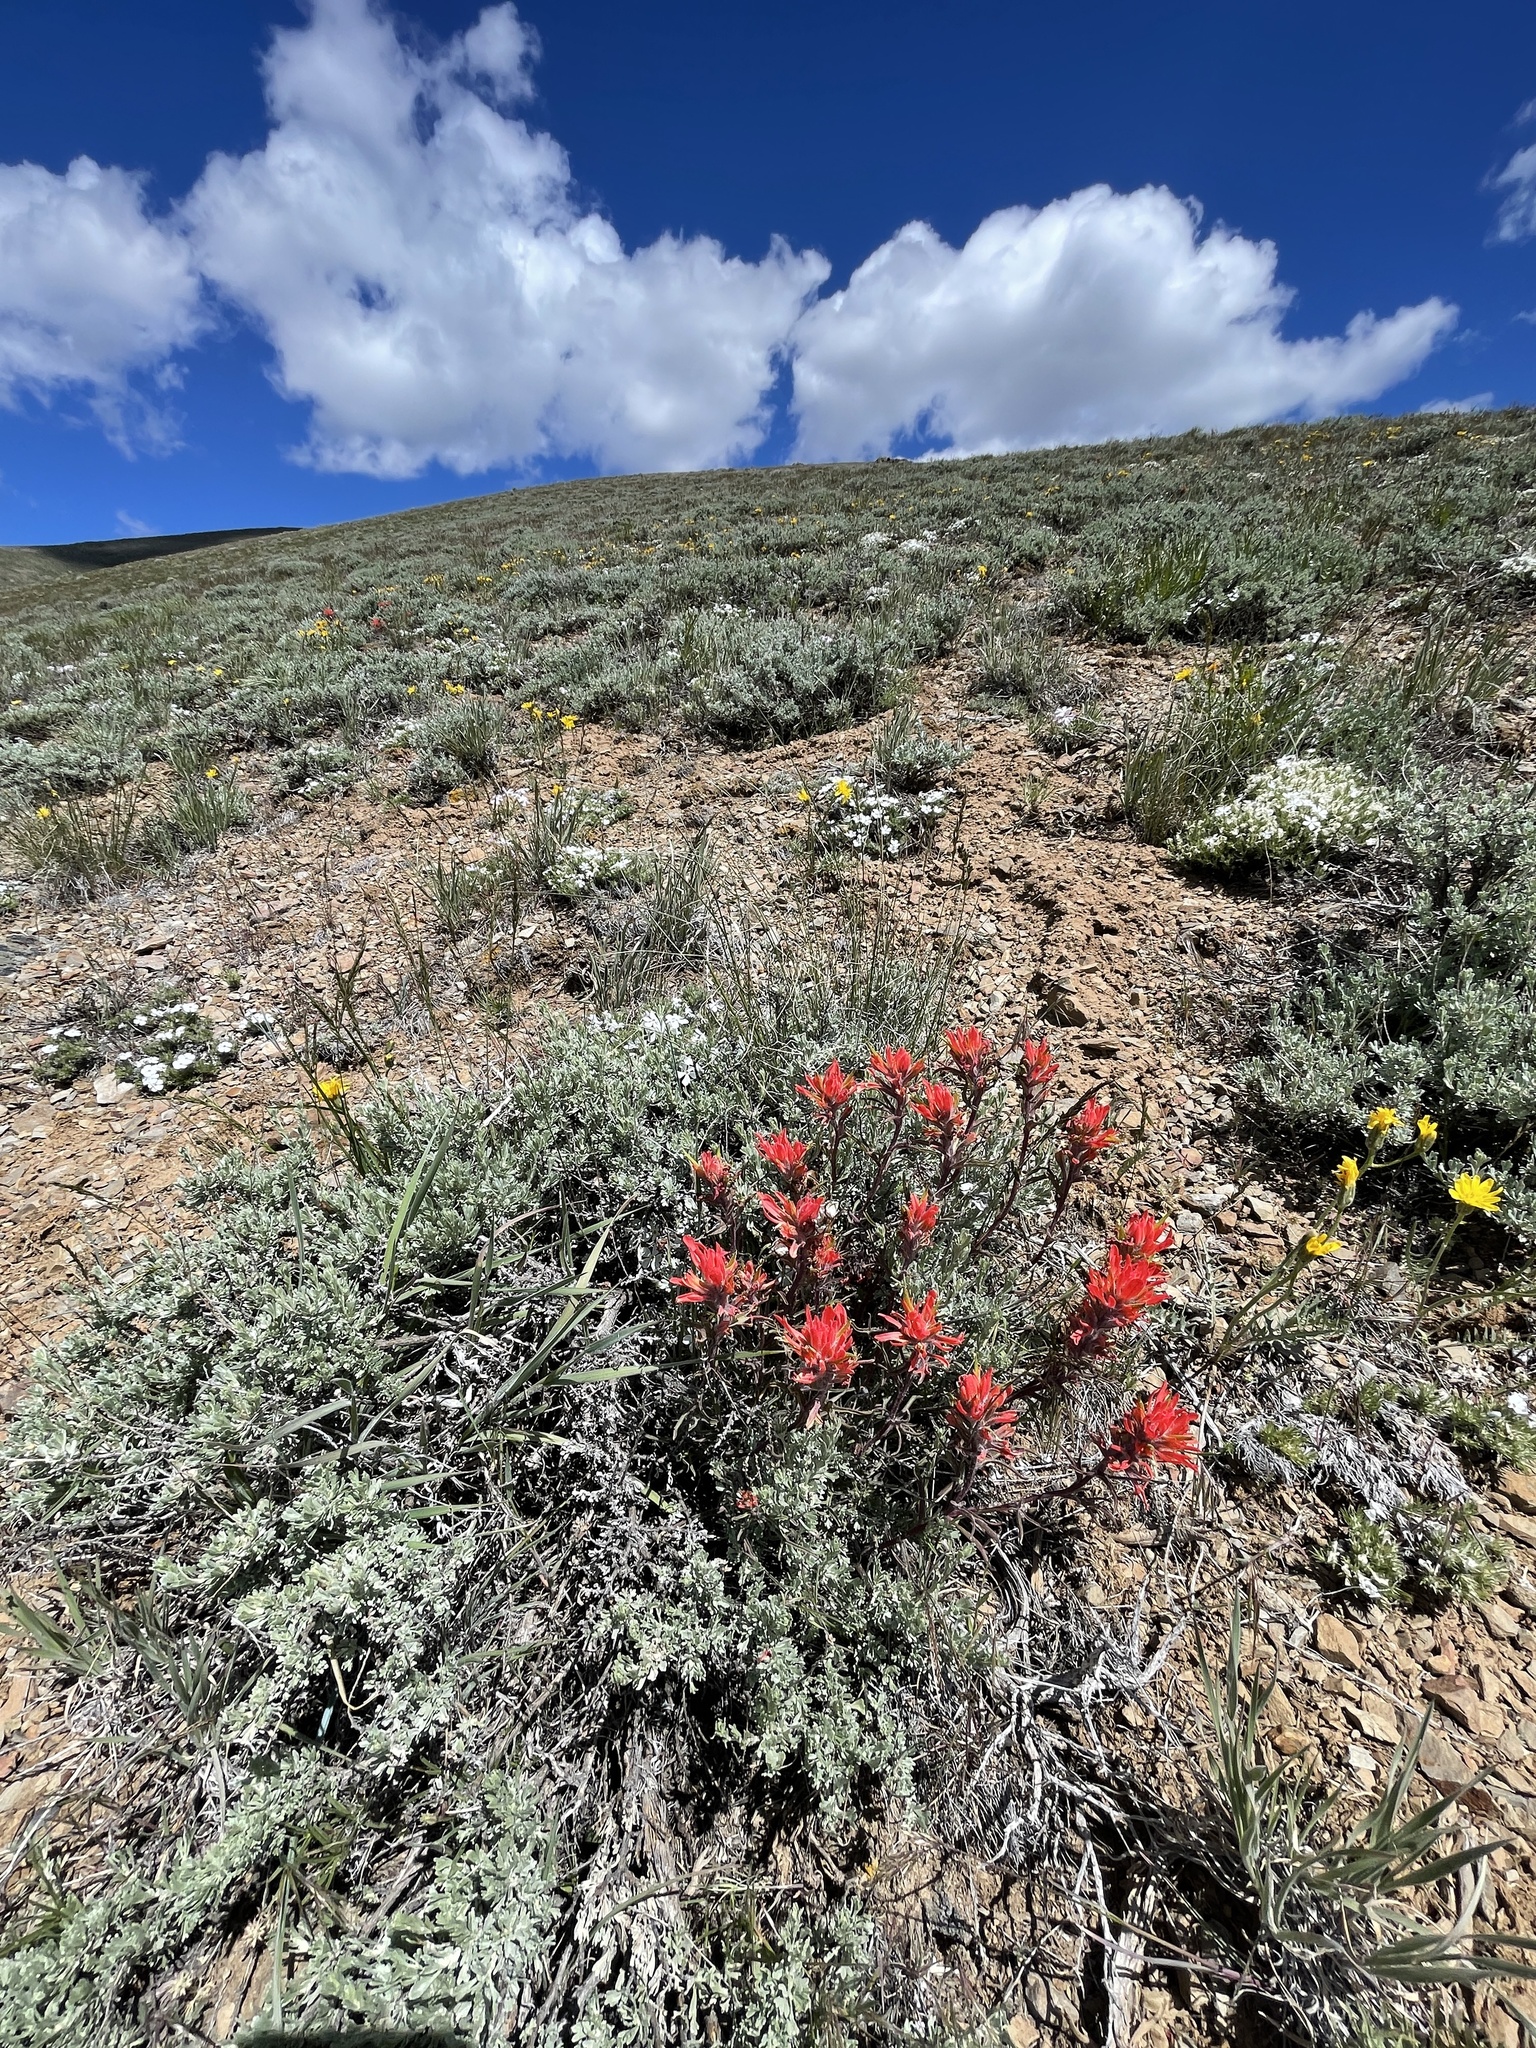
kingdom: Plantae
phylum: Tracheophyta
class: Magnoliopsida
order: Lamiales
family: Orobanchaceae
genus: Castilleja
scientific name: Castilleja chromosa
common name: Desert paintbrush
